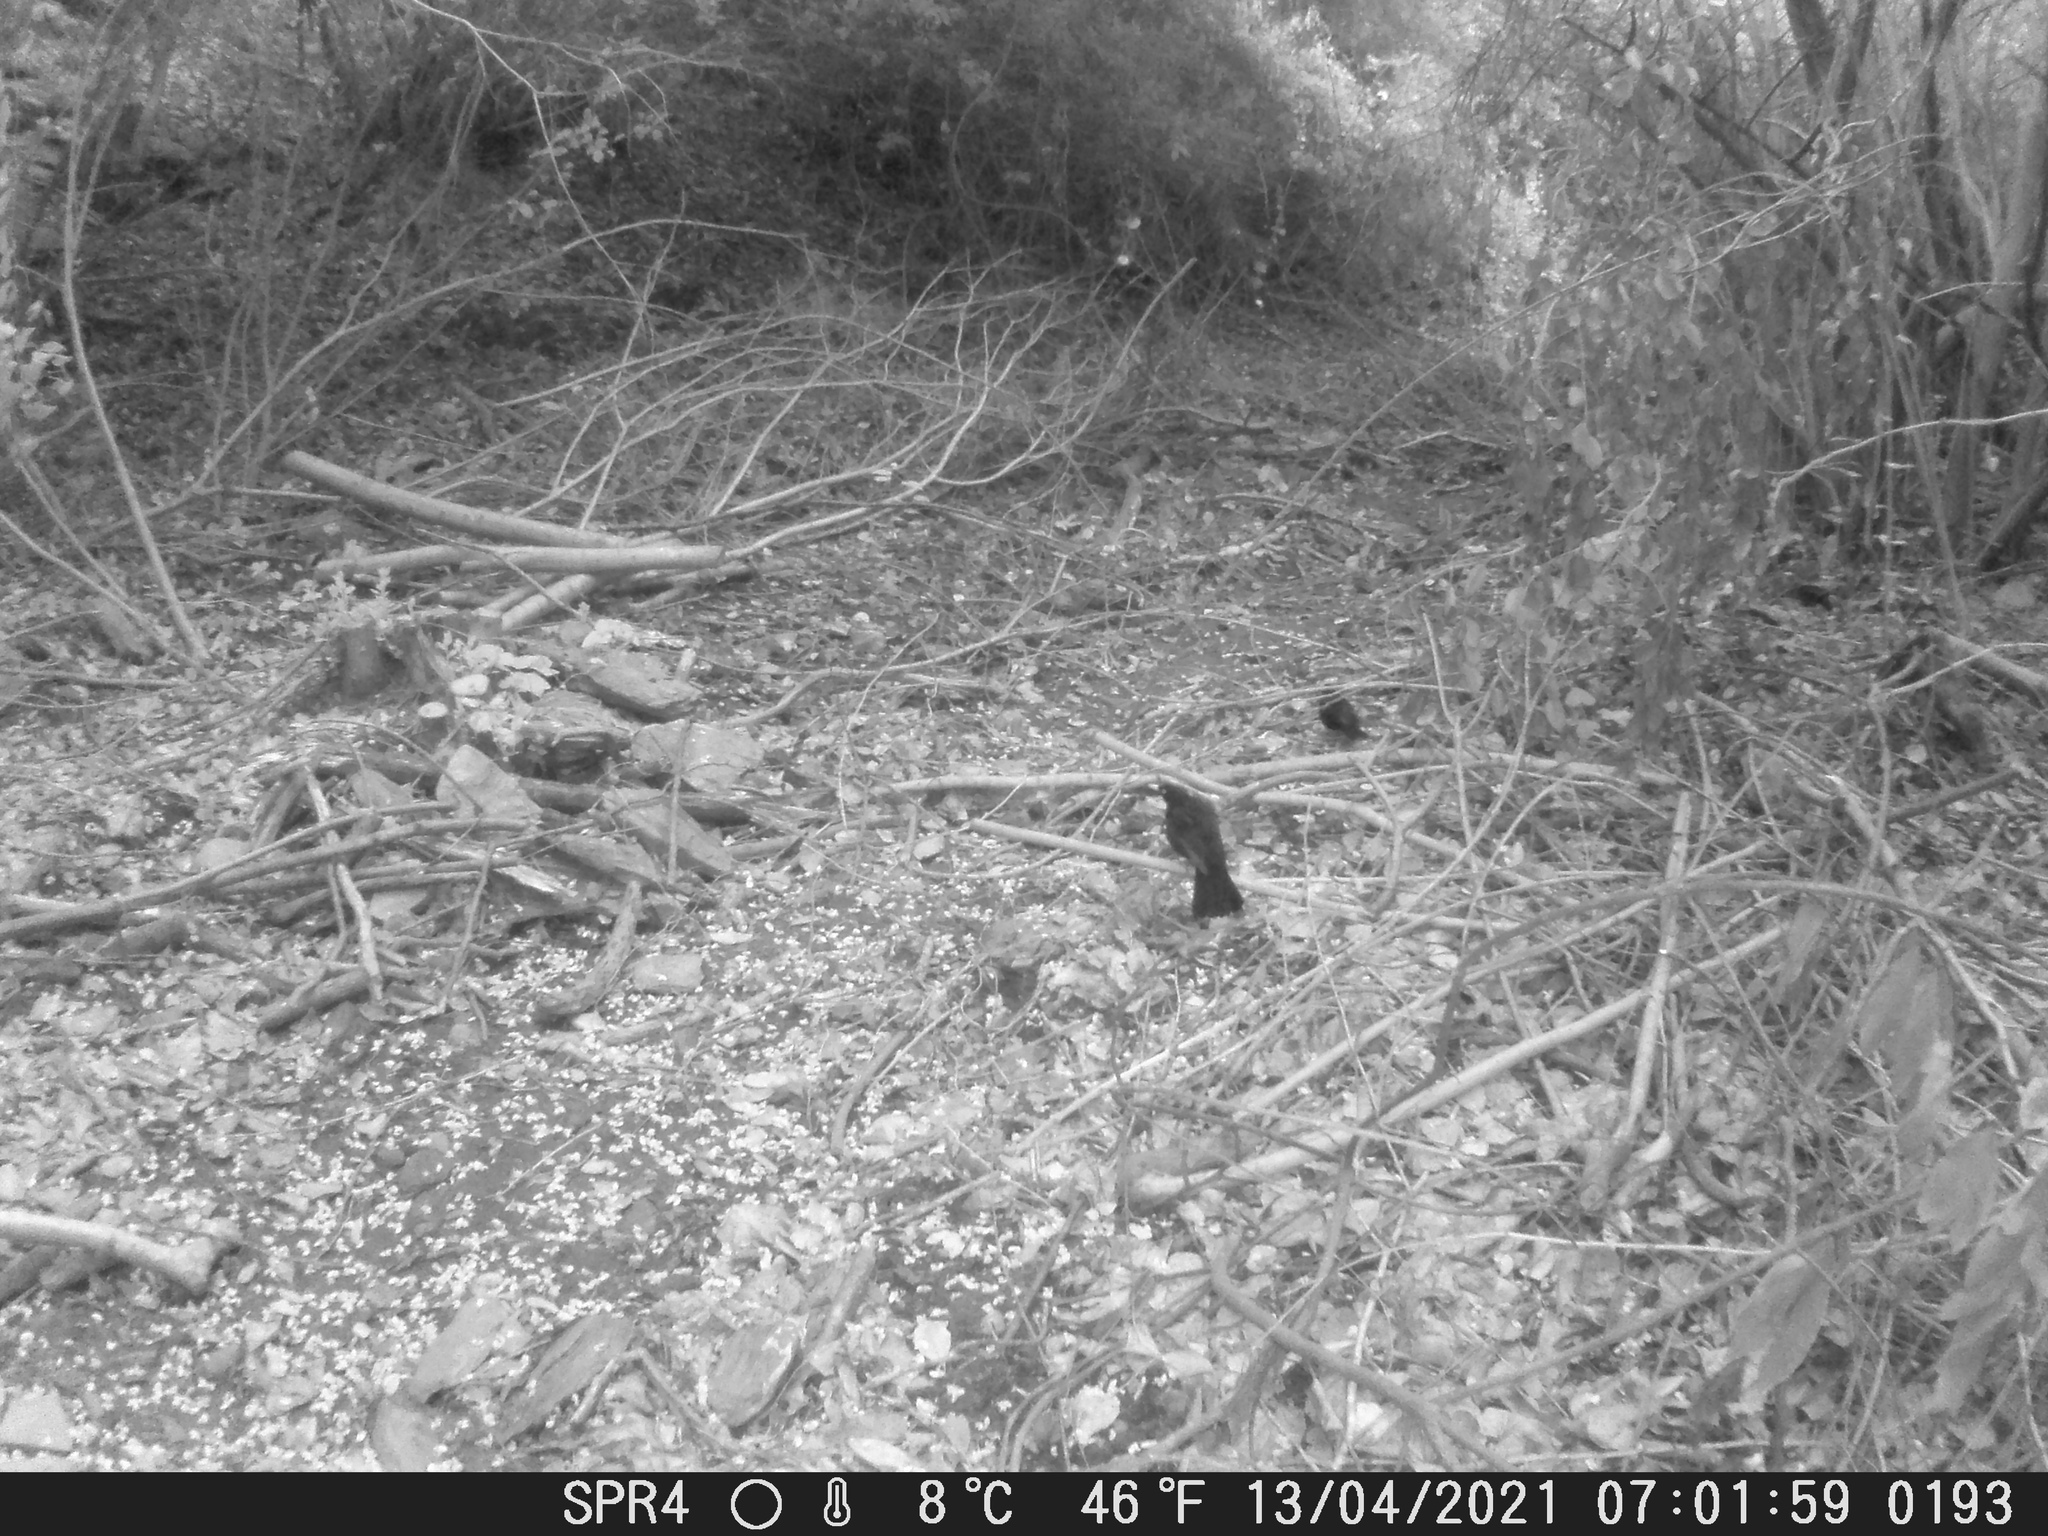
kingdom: Animalia
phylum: Chordata
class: Aves
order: Passeriformes
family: Turdidae
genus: Turdus
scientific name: Turdus merula
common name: Common blackbird
